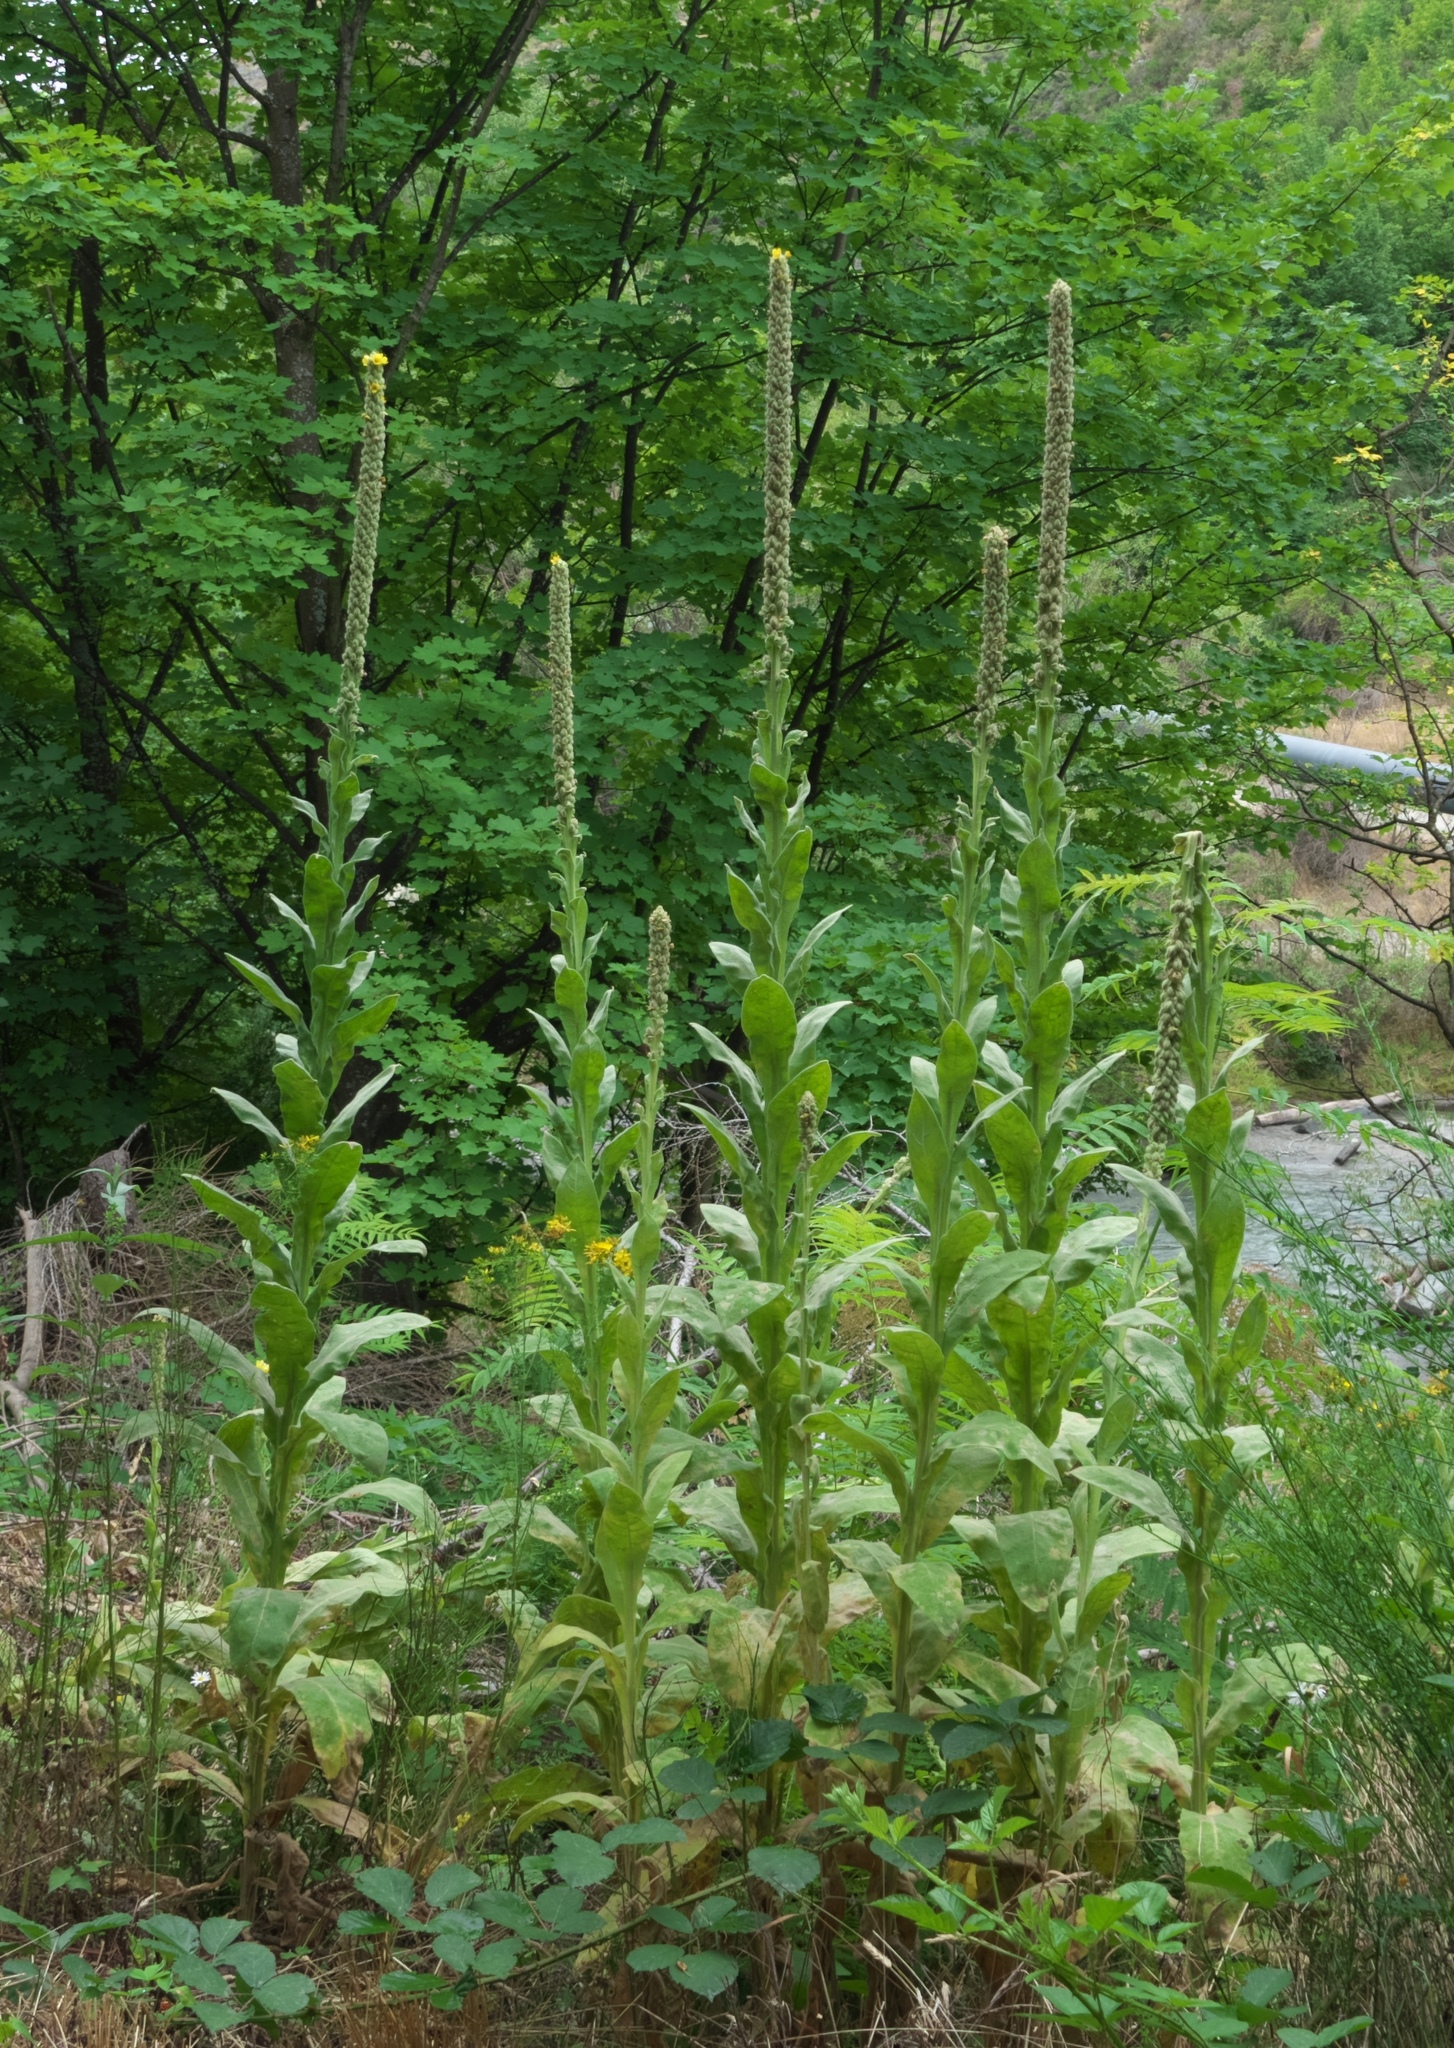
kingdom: Plantae
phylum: Tracheophyta
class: Magnoliopsida
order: Lamiales
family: Scrophulariaceae
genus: Verbascum
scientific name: Verbascum thapsus
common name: Common mullein
